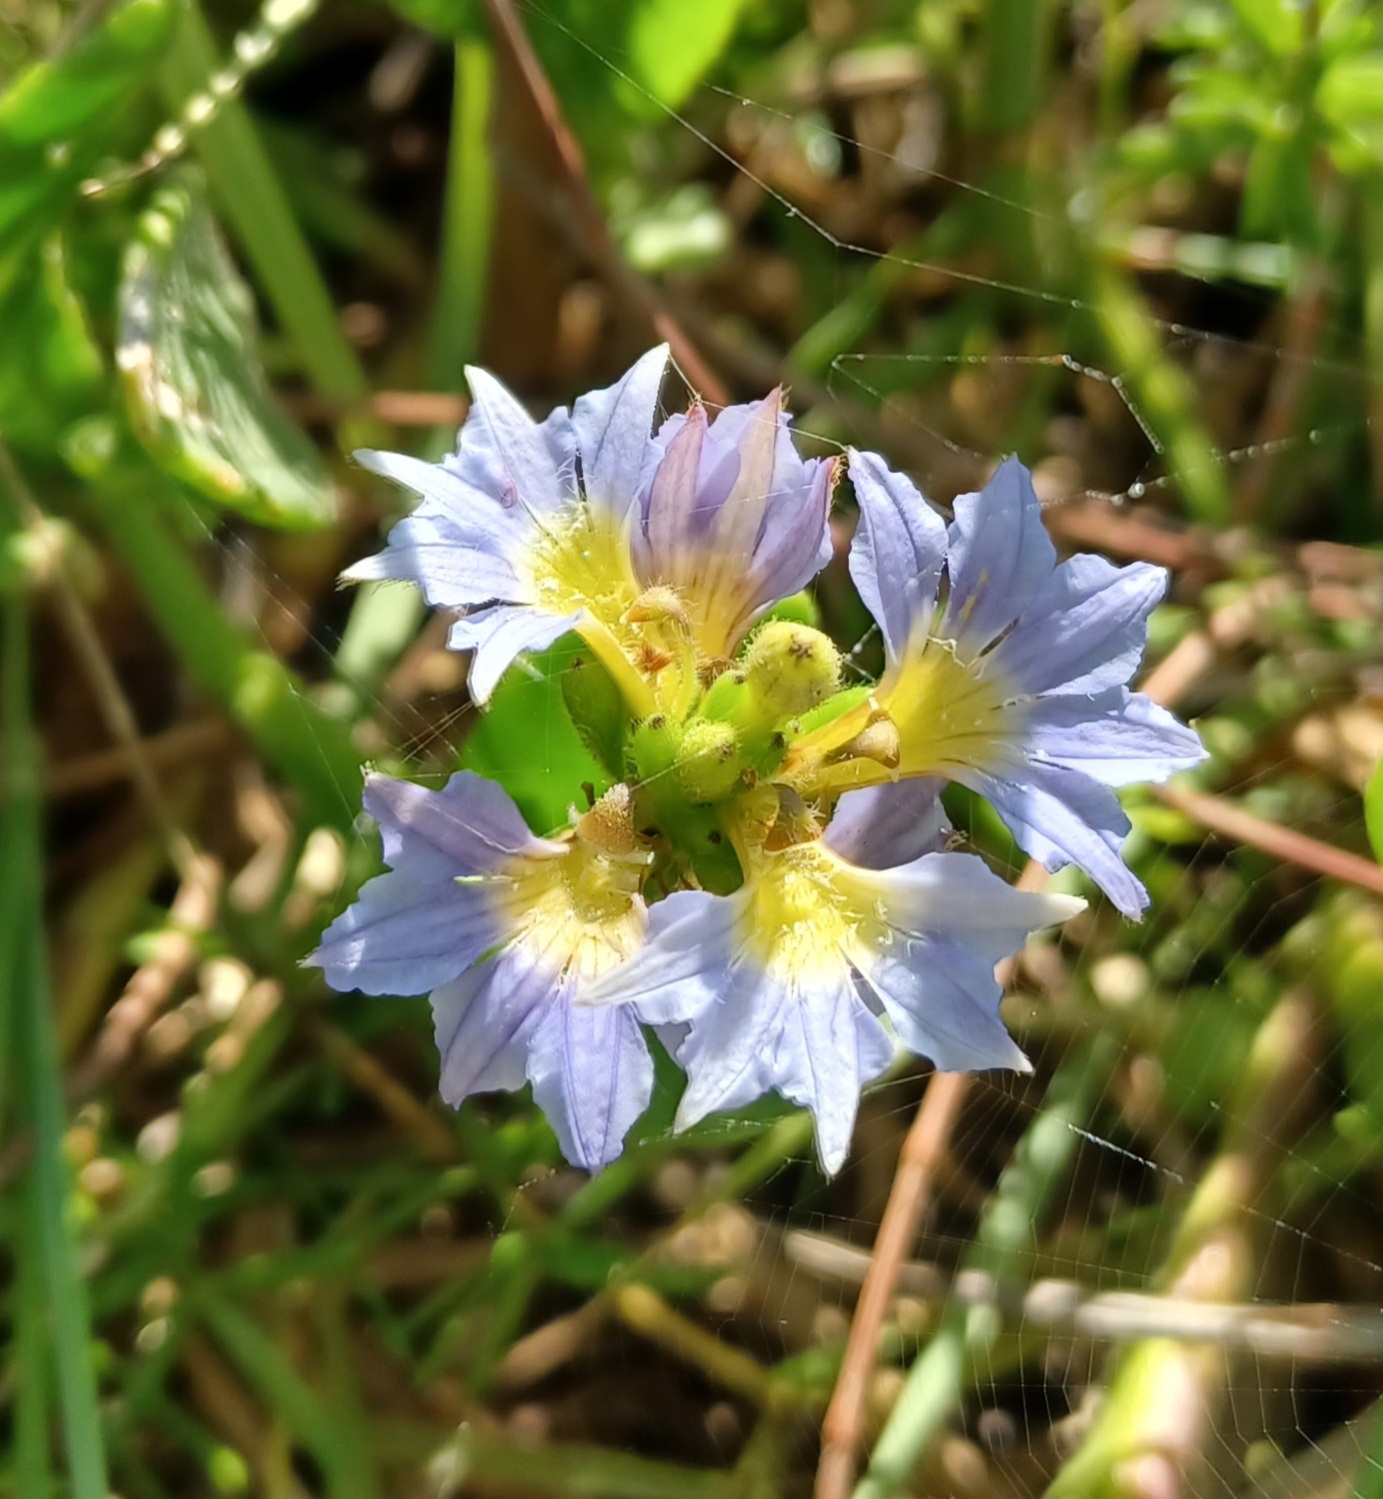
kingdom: Plantae
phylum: Tracheophyta
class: Magnoliopsida
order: Asterales
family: Goodeniaceae
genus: Scaevola
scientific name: Scaevola calendulacea
